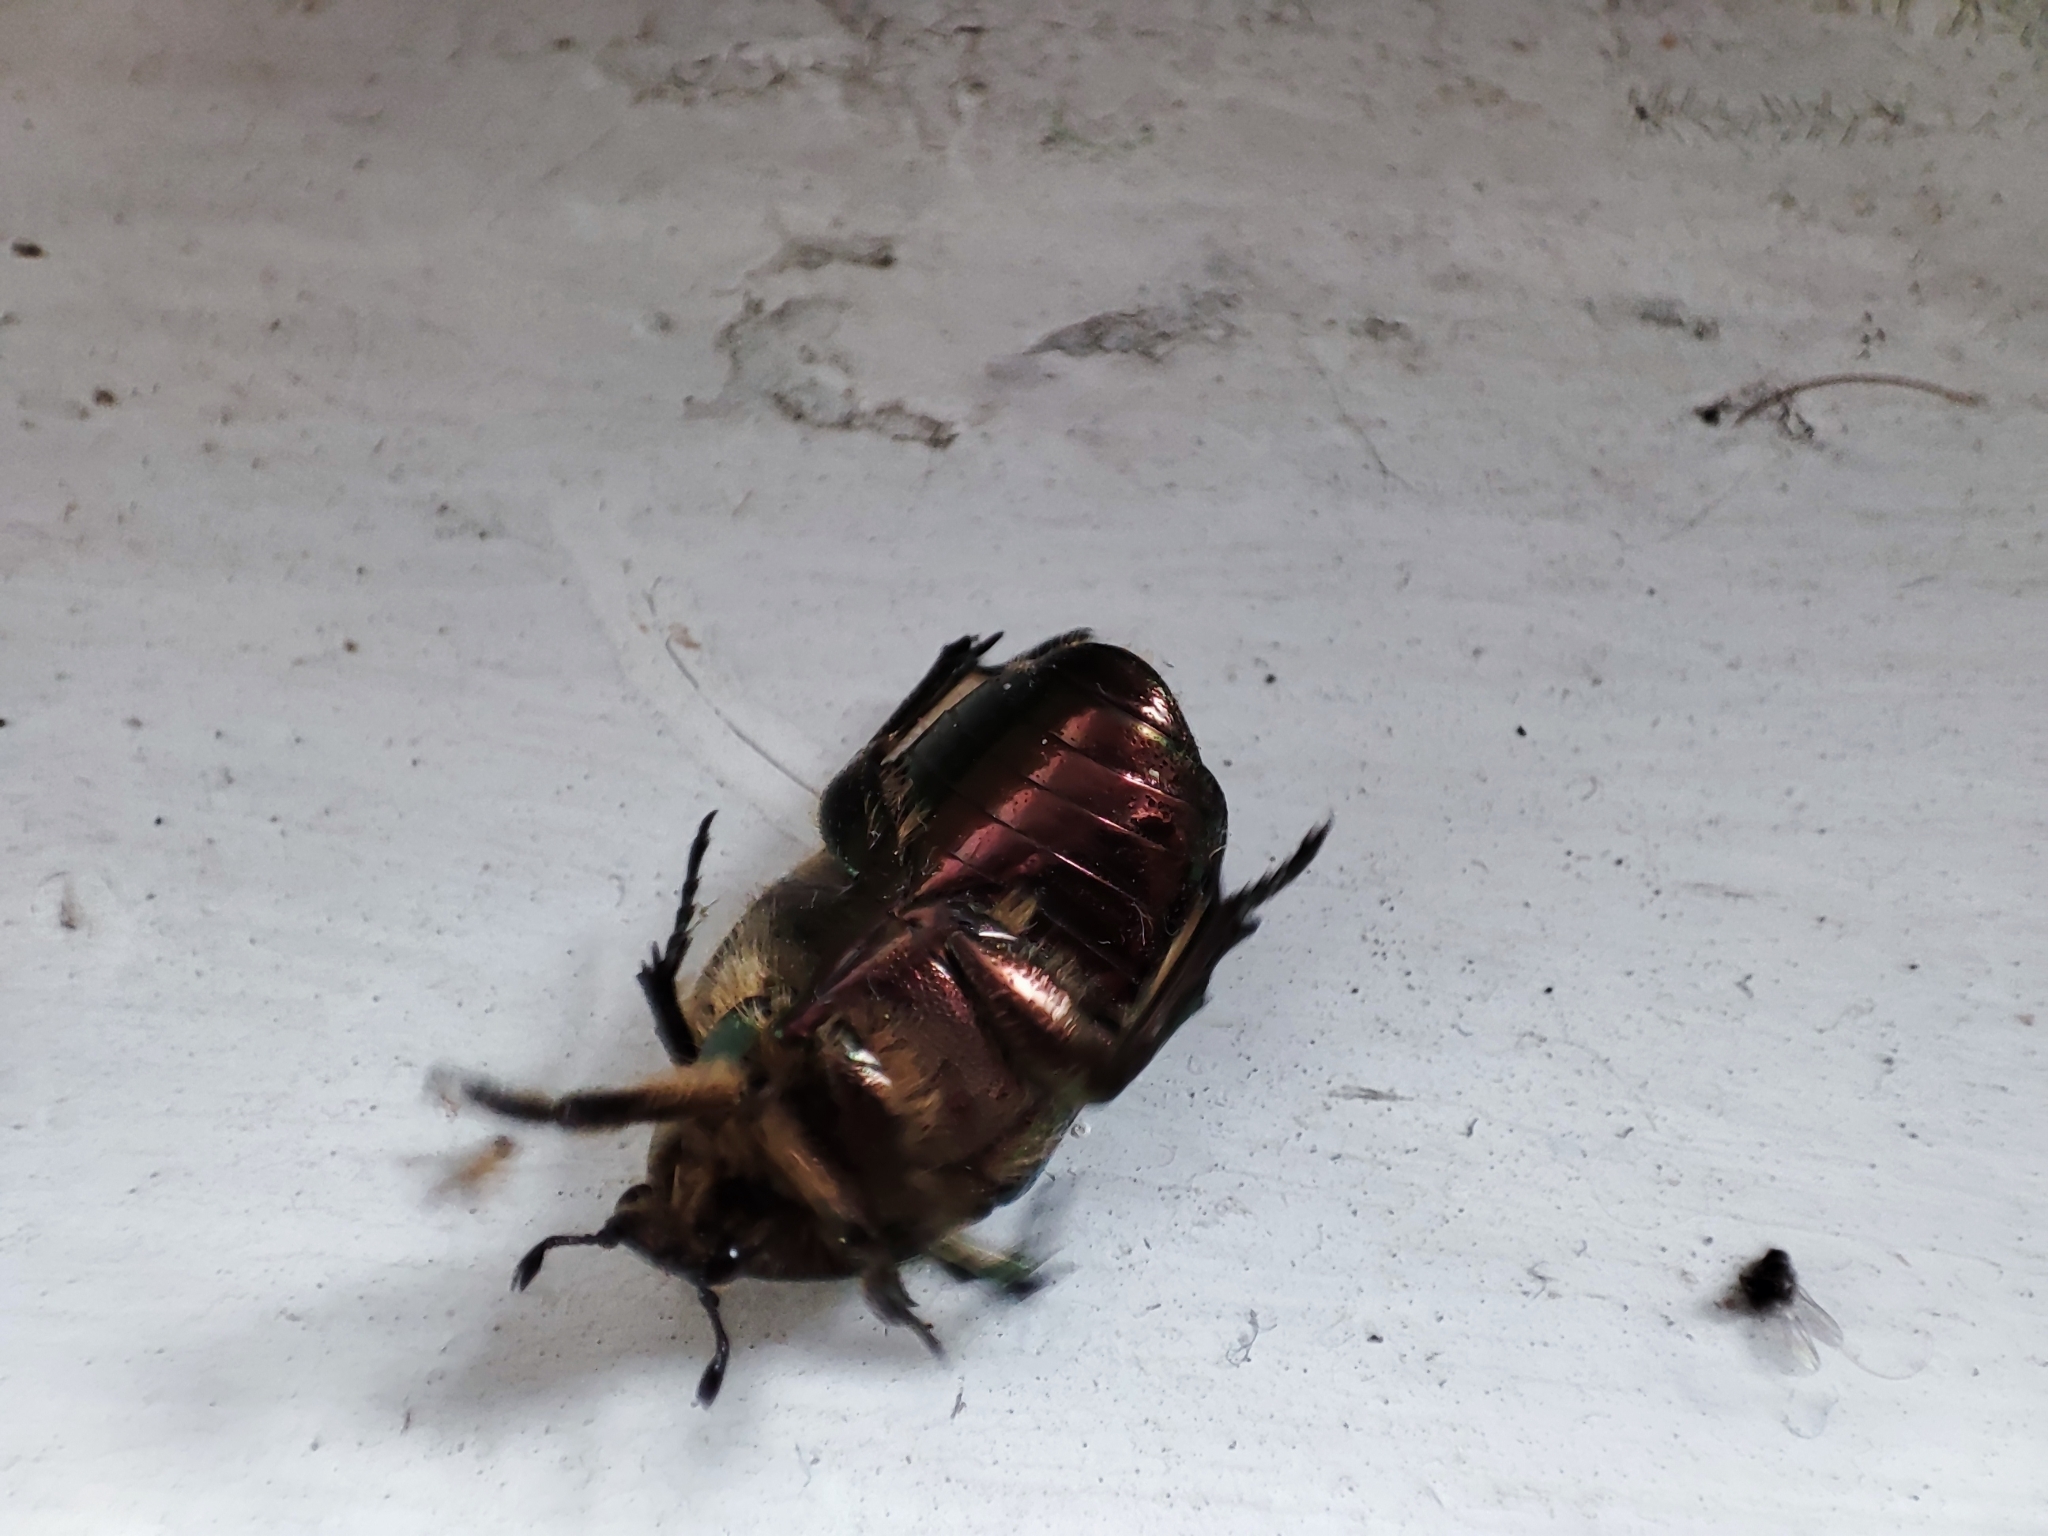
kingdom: Animalia
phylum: Arthropoda
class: Insecta
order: Coleoptera
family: Scarabaeidae
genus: Cetonia
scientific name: Cetonia aurata
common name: Rose chafer
